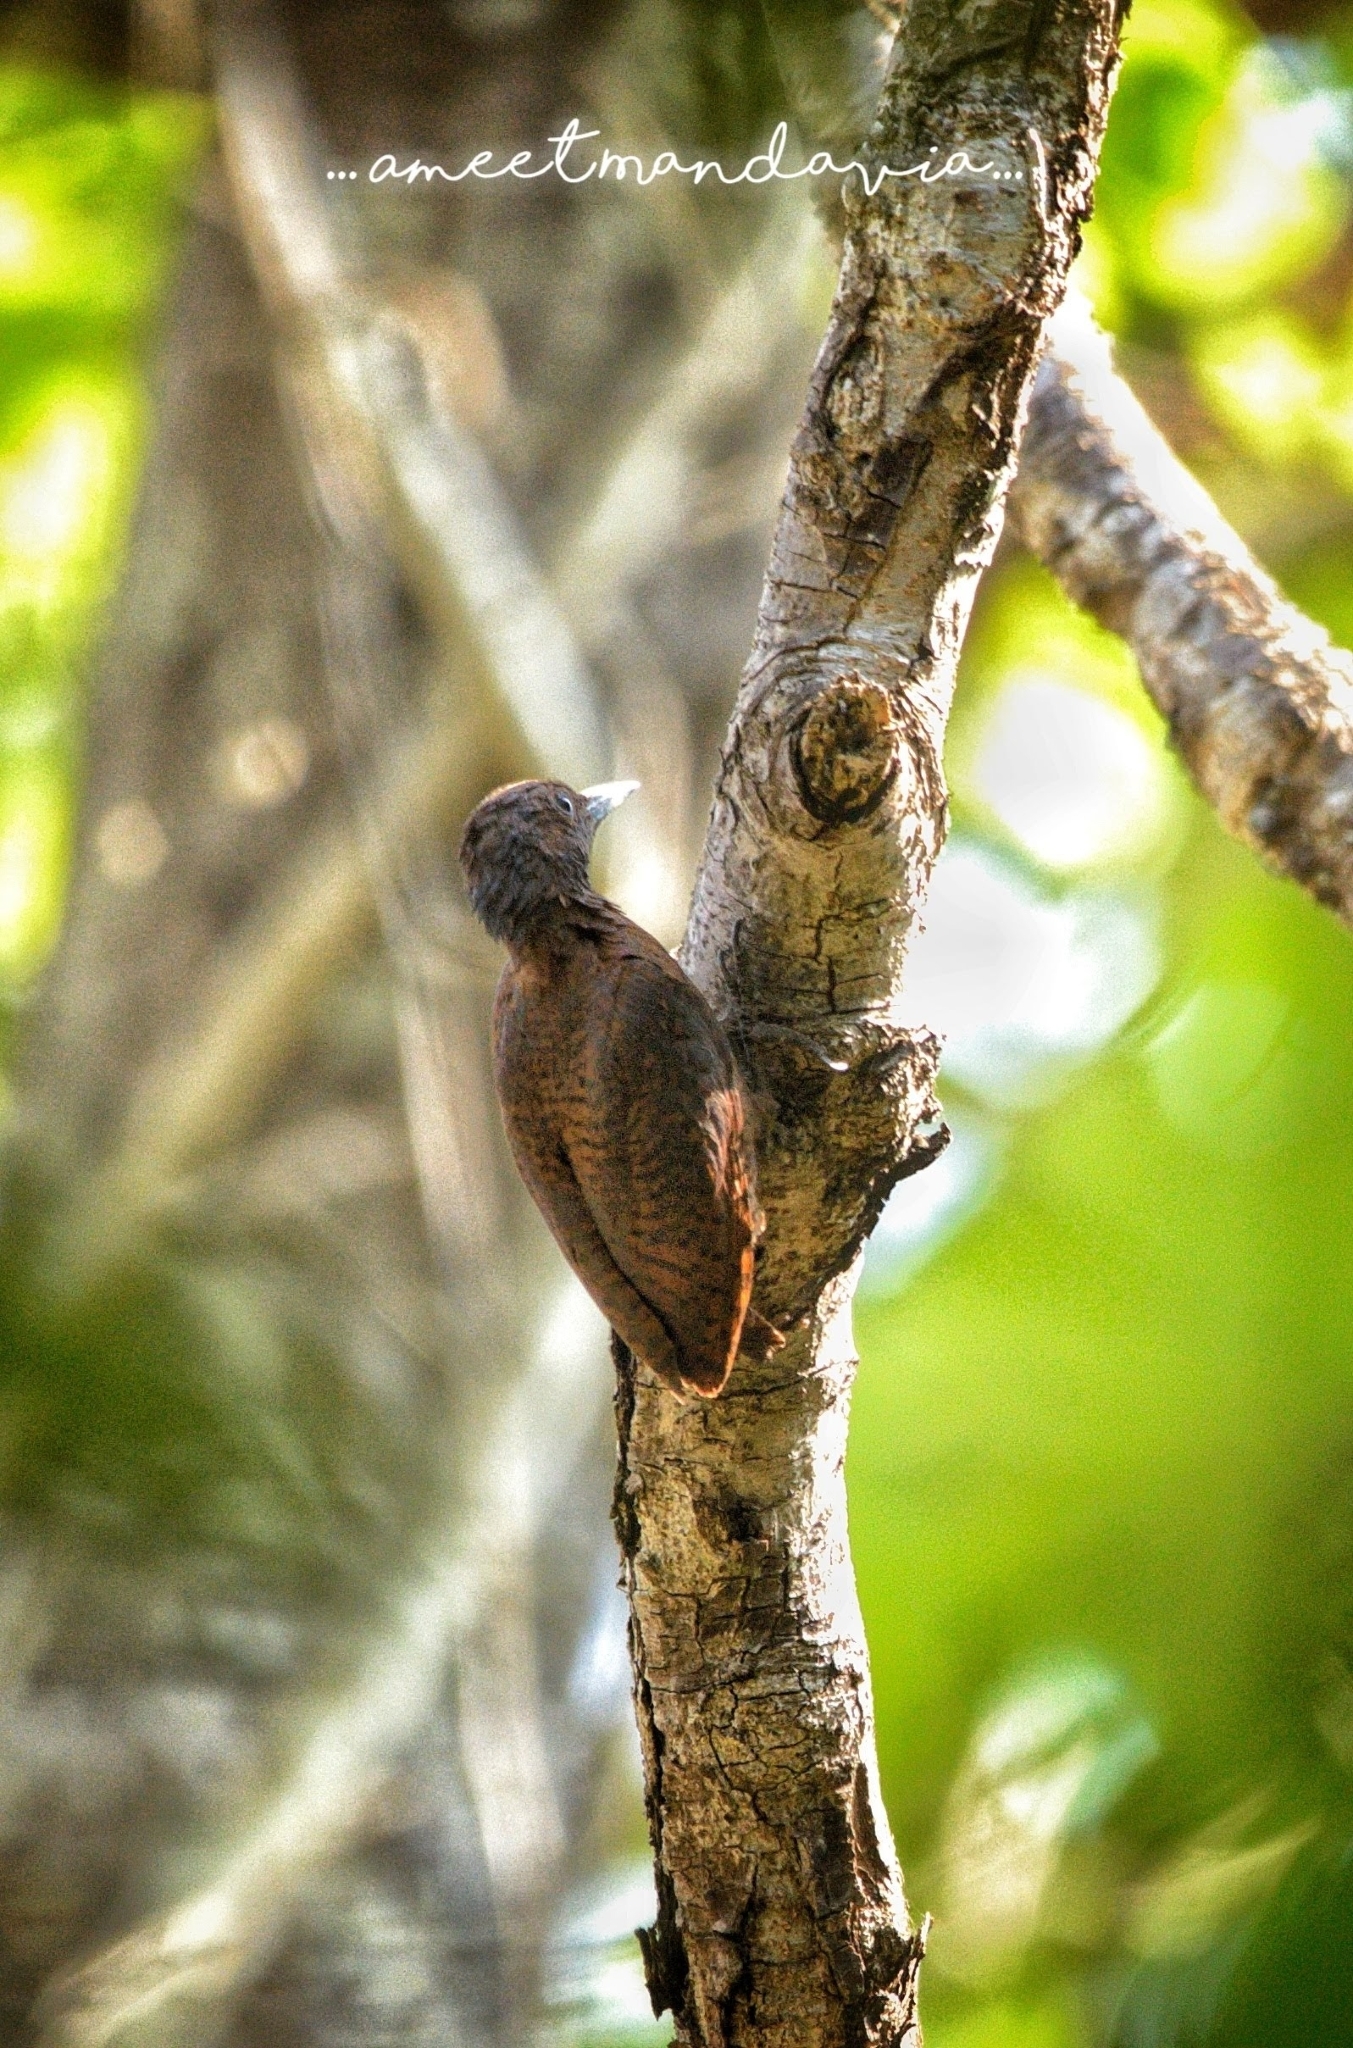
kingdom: Animalia
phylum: Chordata
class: Aves
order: Piciformes
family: Picidae
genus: Micropternus
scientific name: Micropternus brachyurus
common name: Rufous woodpecker
